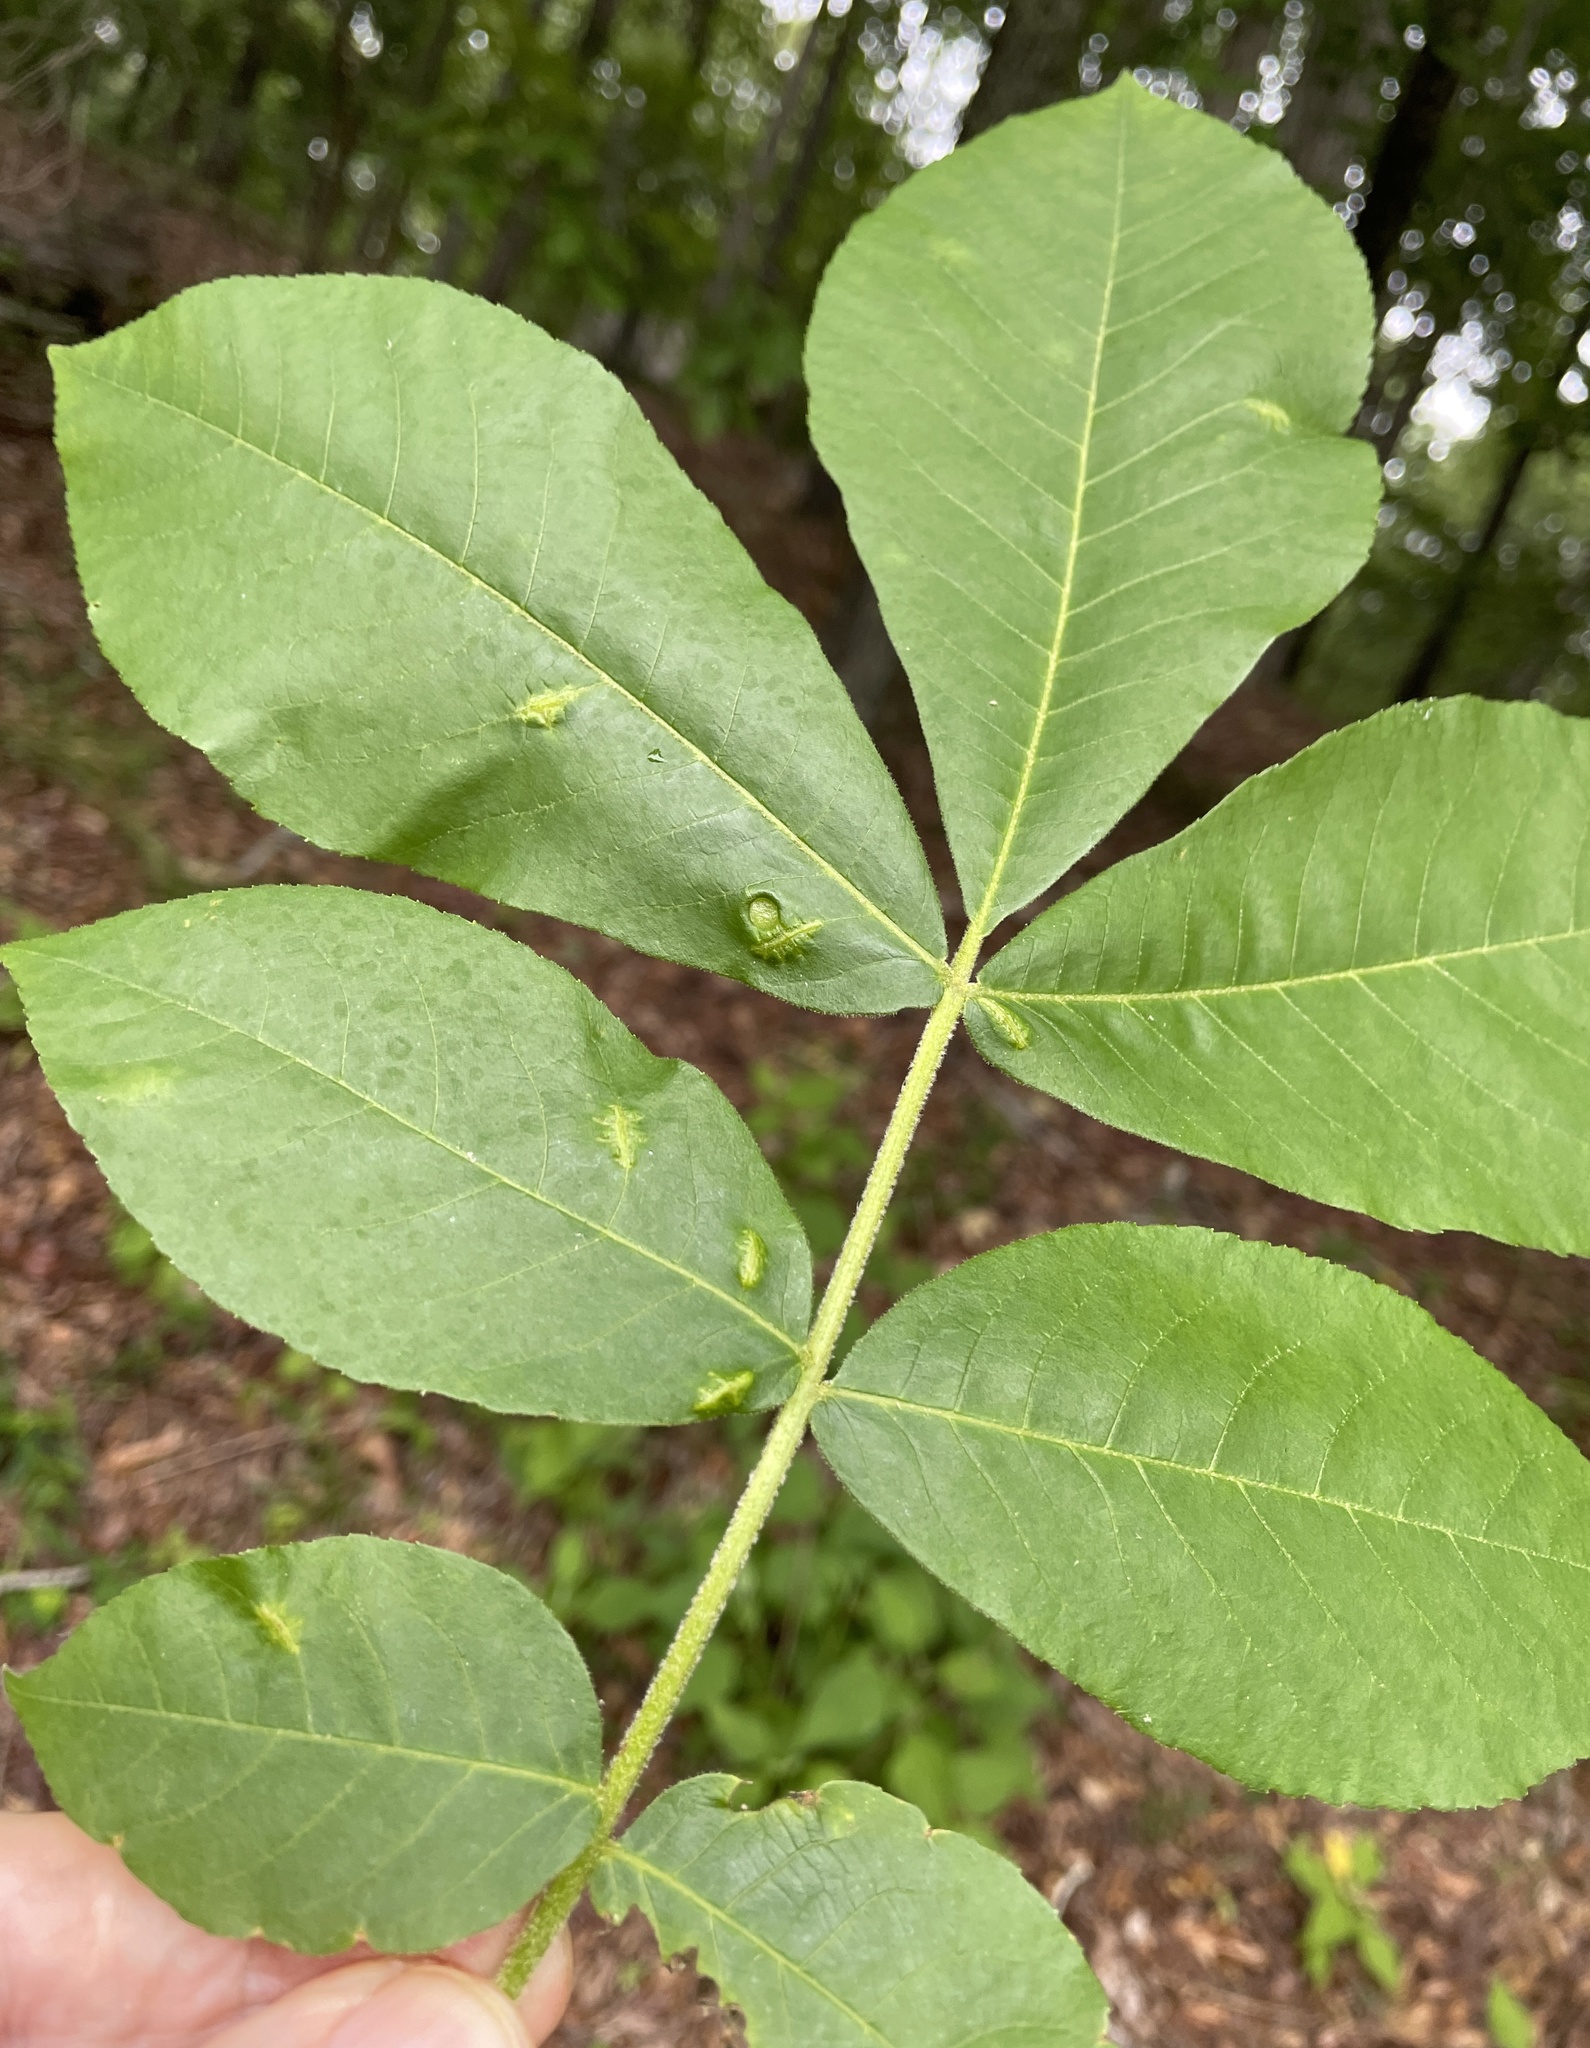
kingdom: Animalia
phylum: Arthropoda
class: Insecta
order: Hemiptera
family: Phylloxeridae
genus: Phylloxera
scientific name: Phylloxera caryaevenae
